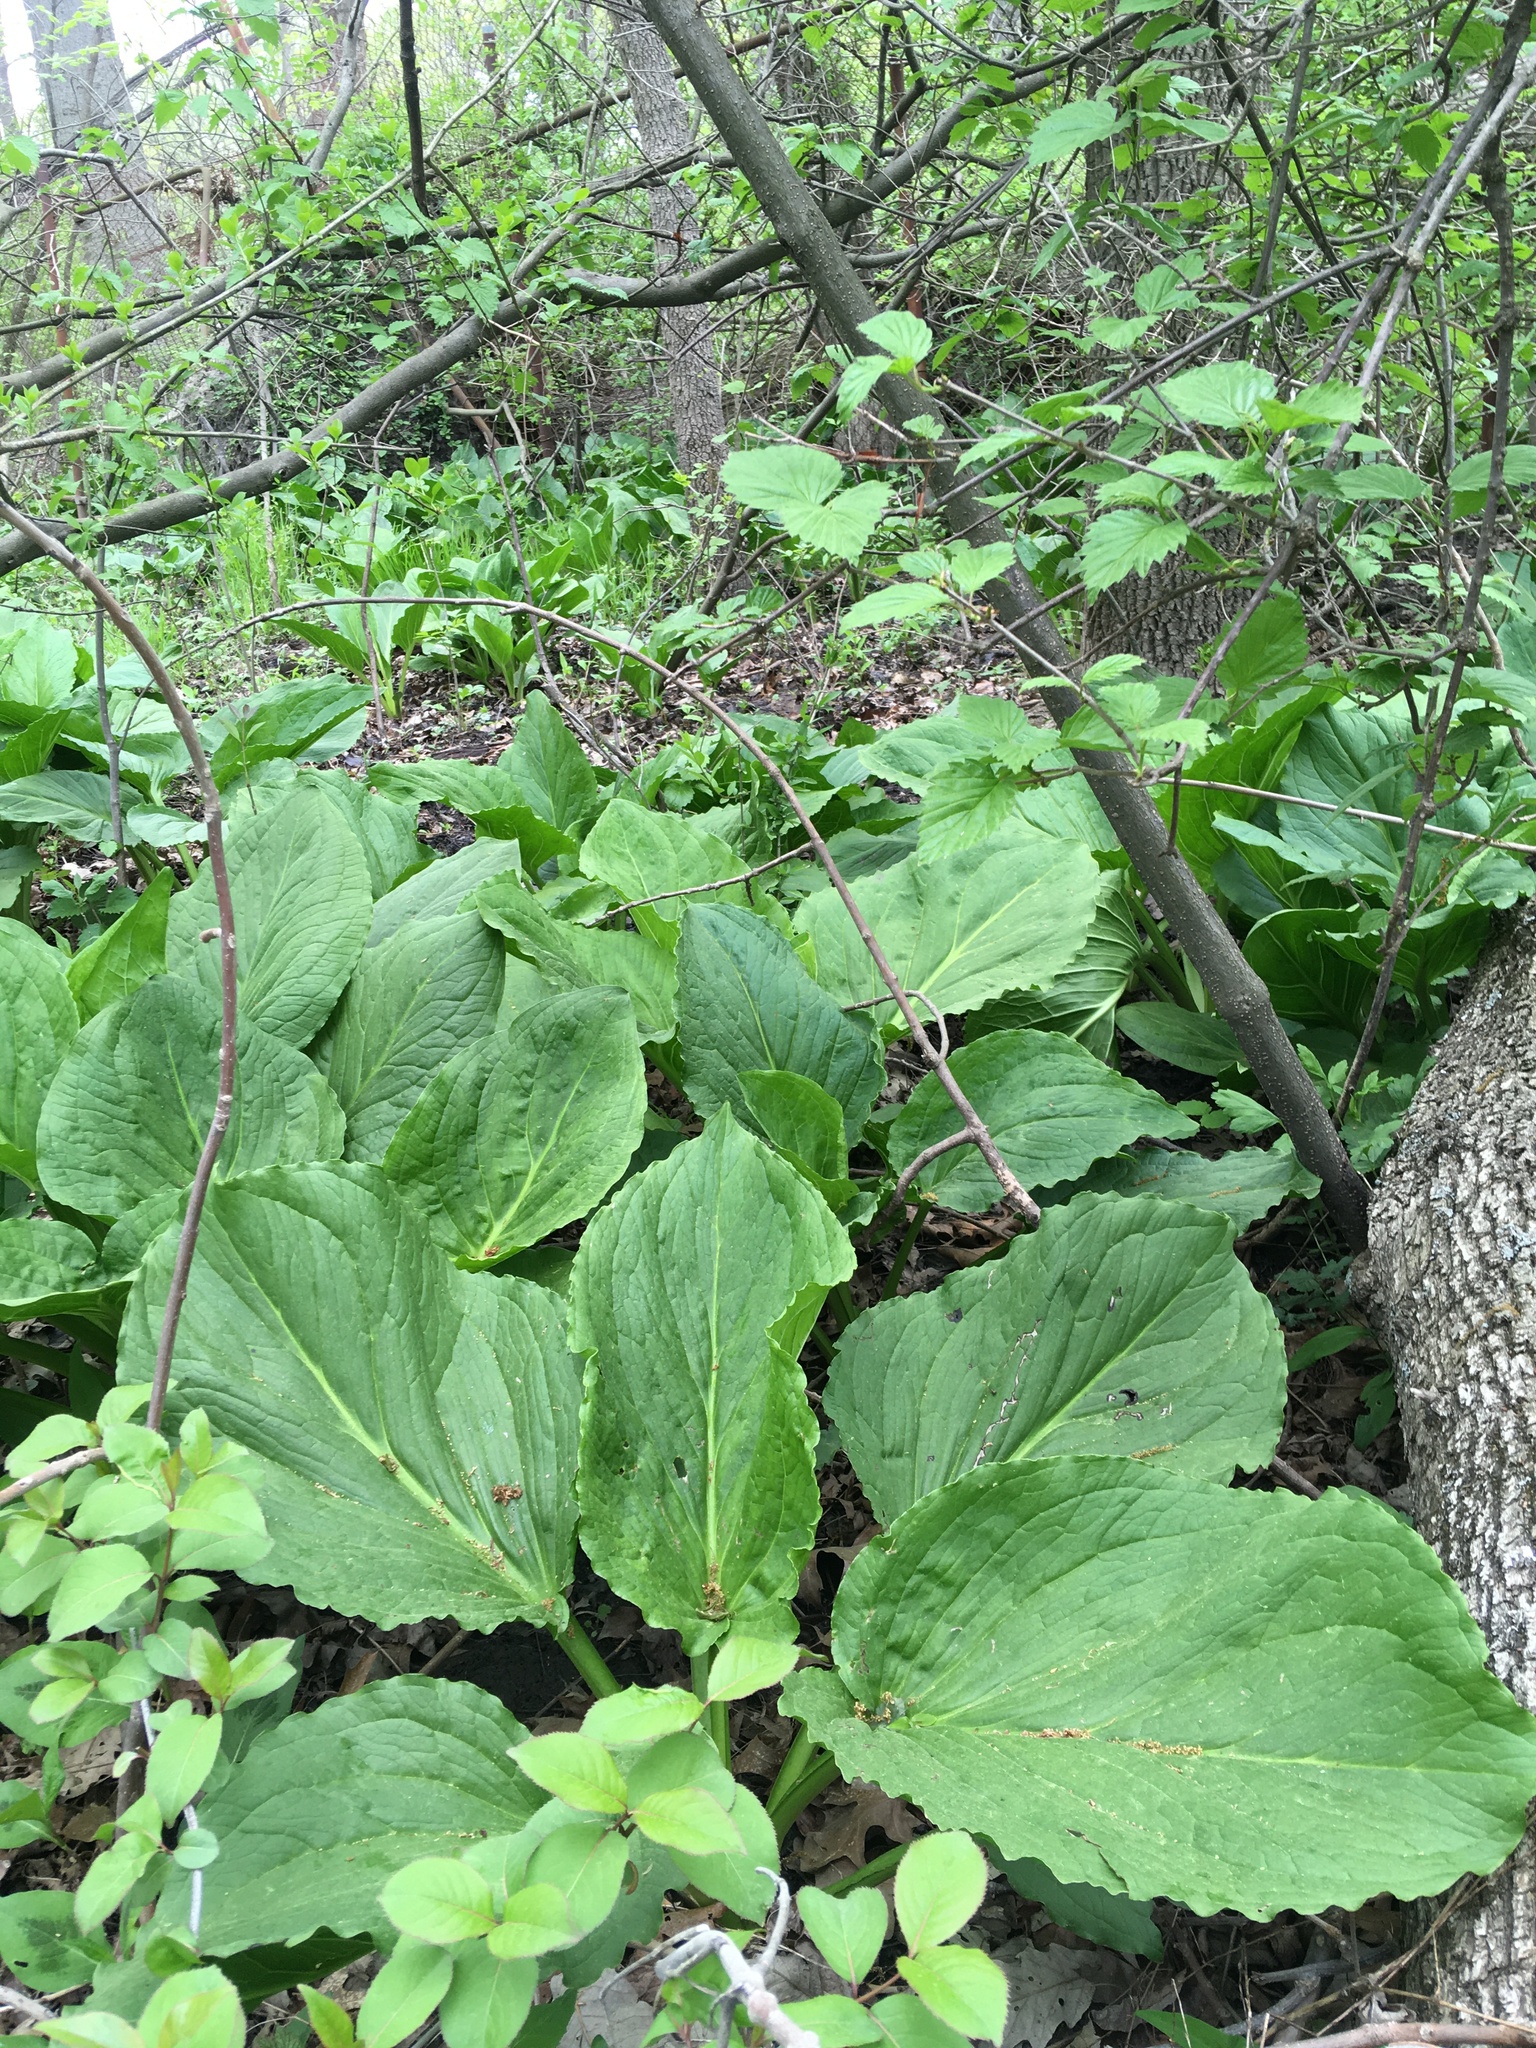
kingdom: Plantae
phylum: Tracheophyta
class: Liliopsida
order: Alismatales
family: Araceae
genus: Symplocarpus
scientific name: Symplocarpus foetidus
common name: Eastern skunk cabbage
